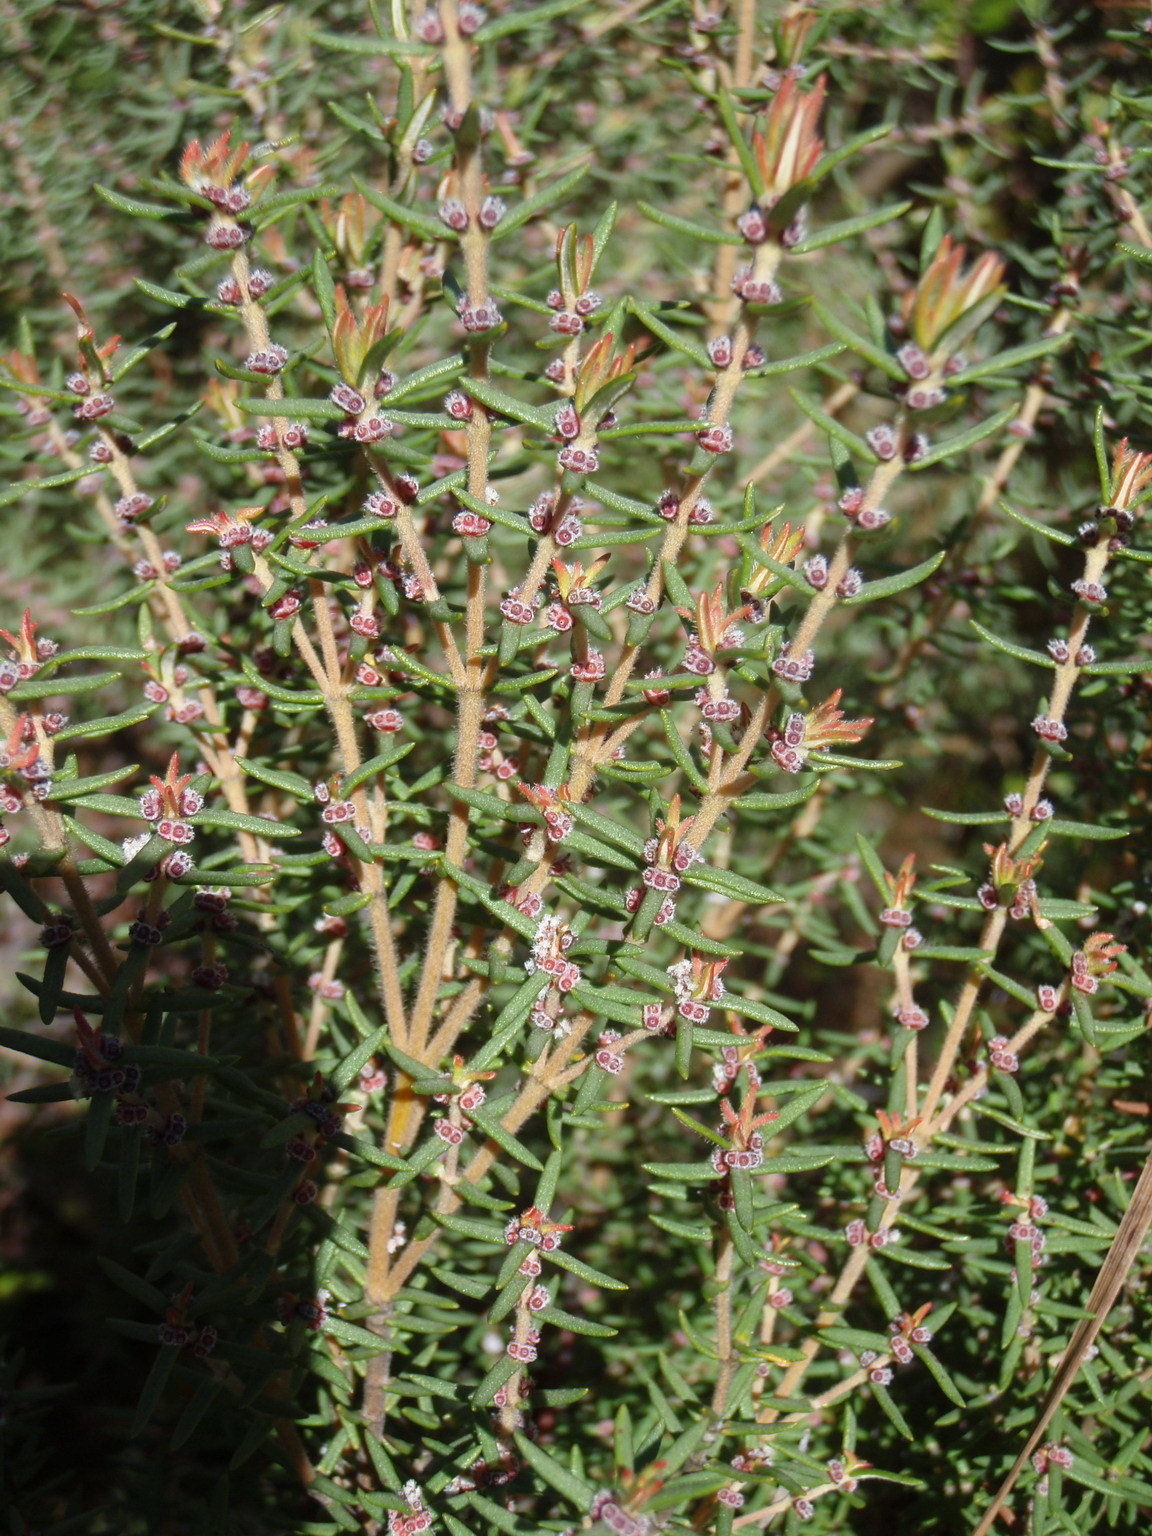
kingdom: Plantae
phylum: Tracheophyta
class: Magnoliopsida
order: Cornales
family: Grubbiaceae
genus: Grubbia
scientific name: Grubbia rosmarinifolia
